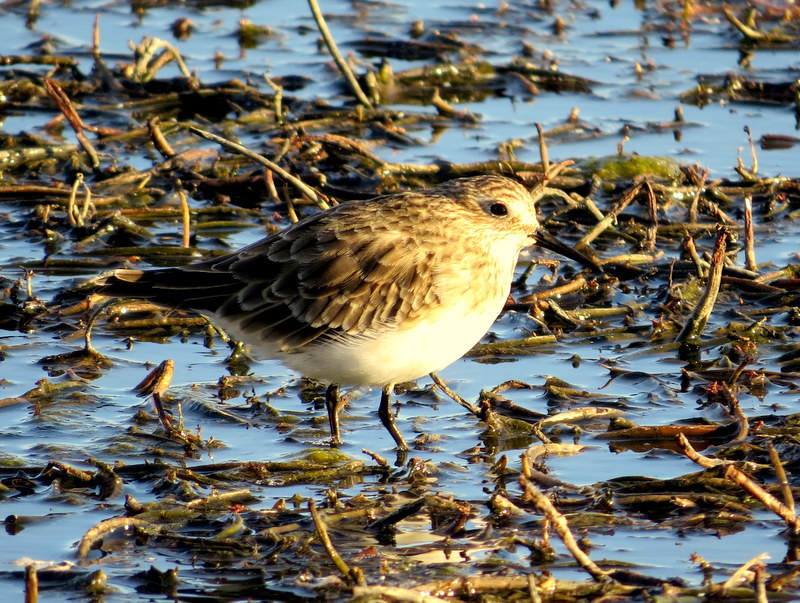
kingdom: Animalia
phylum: Chordata
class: Aves
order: Charadriiformes
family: Scolopacidae
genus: Calidris
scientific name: Calidris bairdii
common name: Baird's sandpiper
